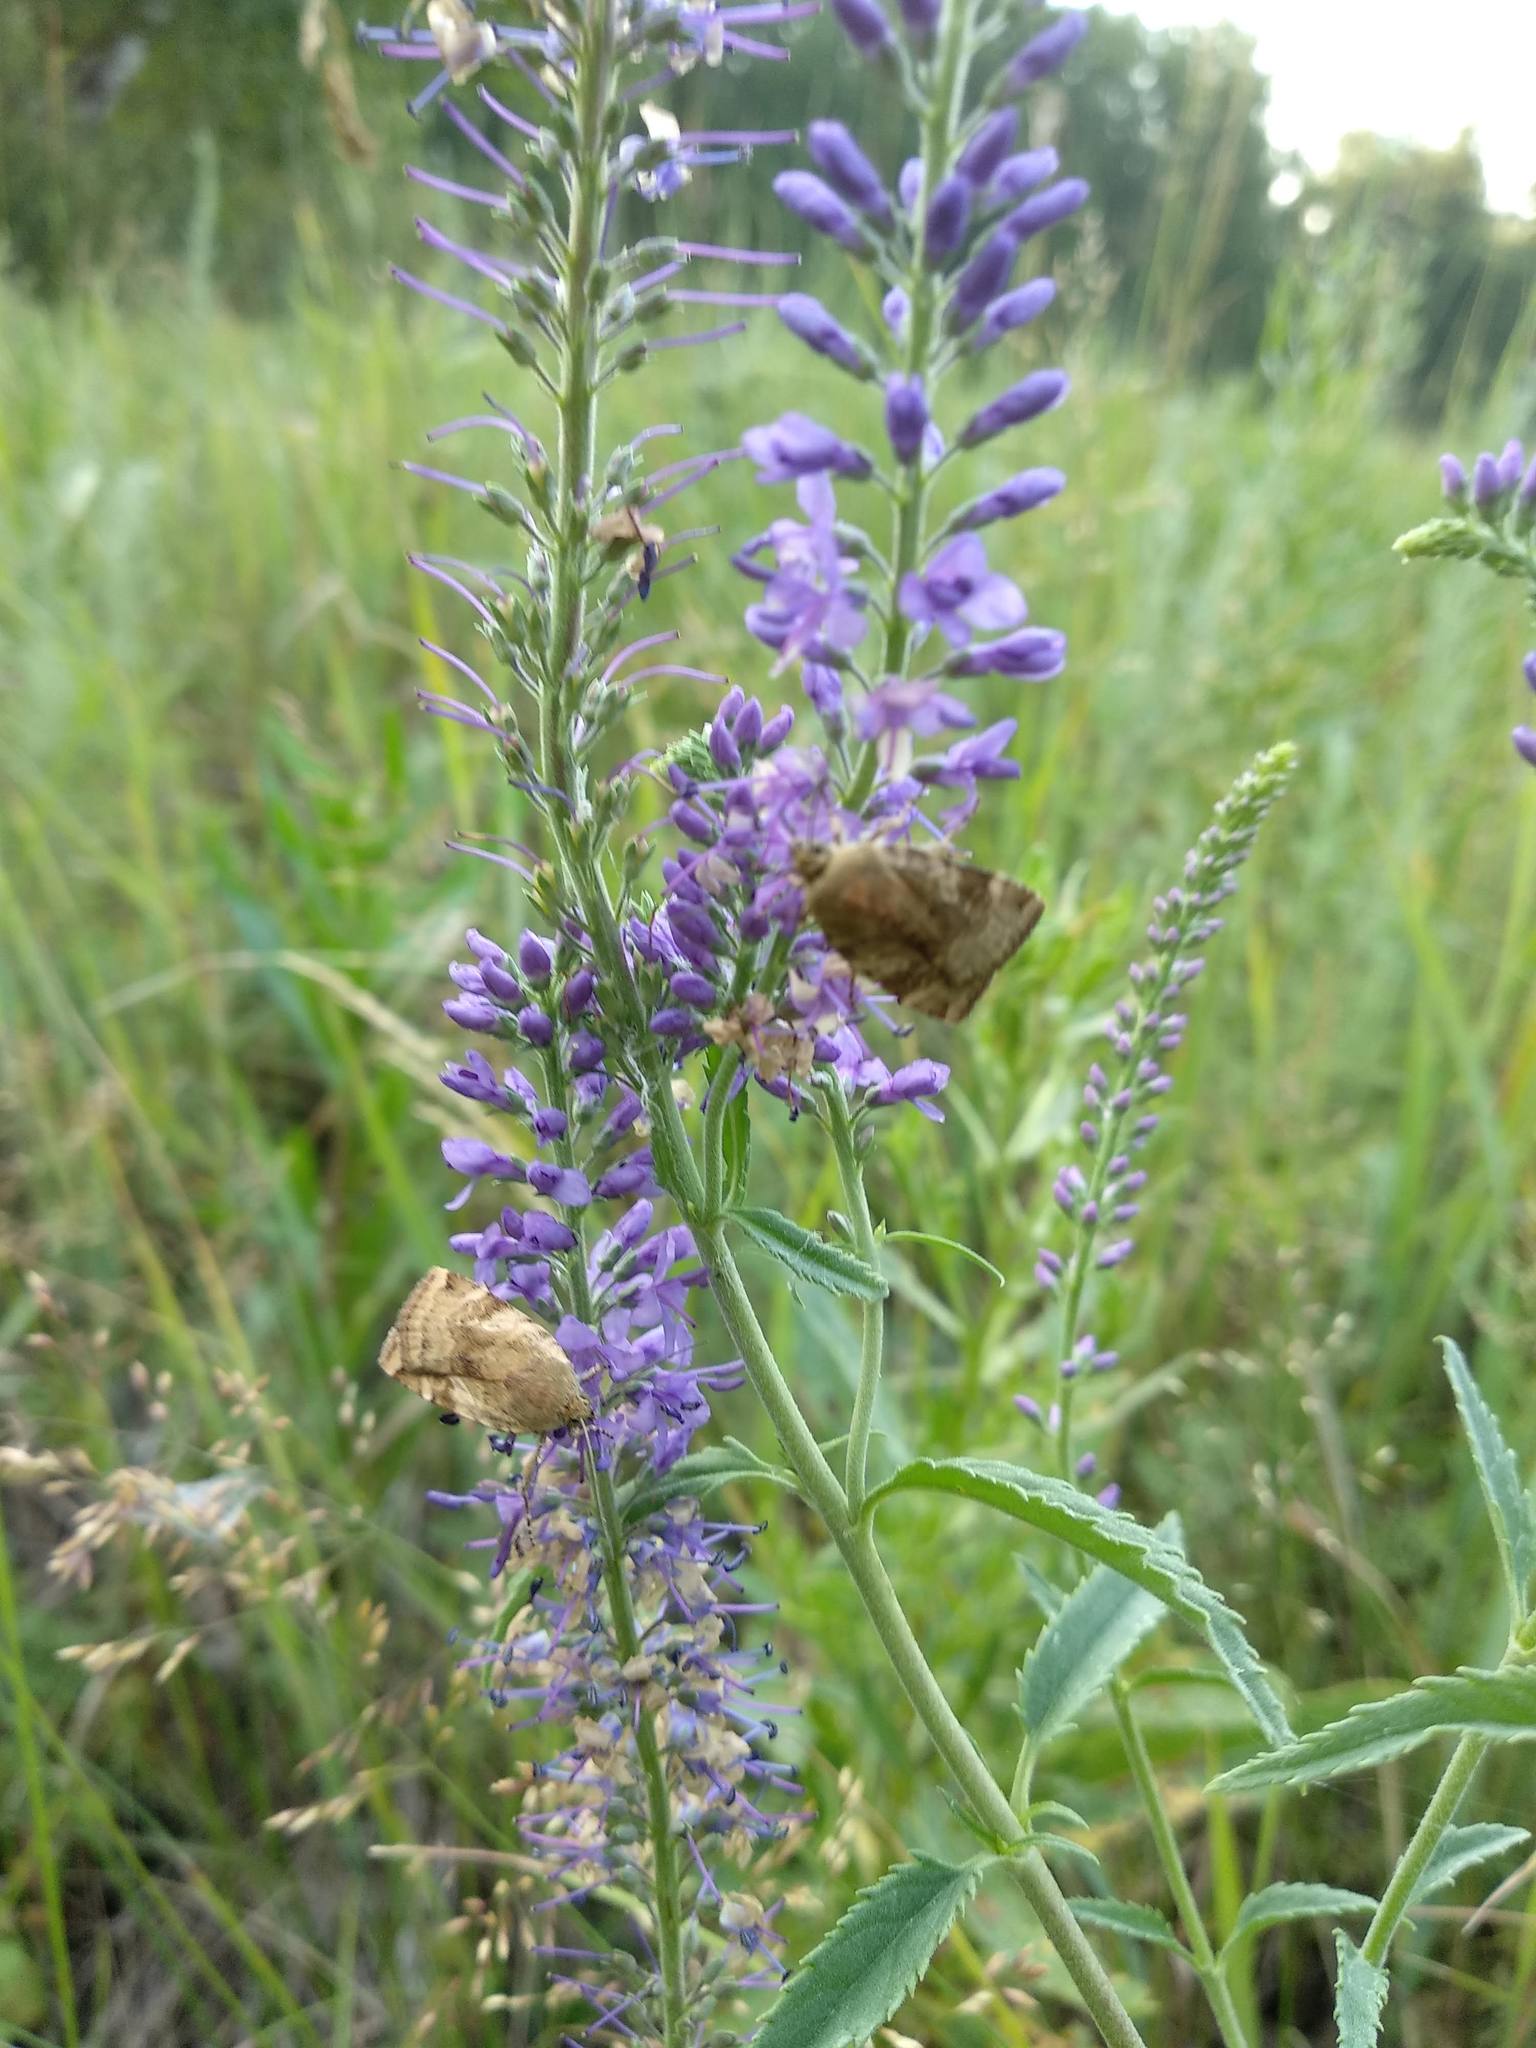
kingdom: Animalia
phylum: Arthropoda
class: Insecta
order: Lepidoptera
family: Noctuidae
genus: Cryptocala
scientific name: Cryptocala chardinyi
